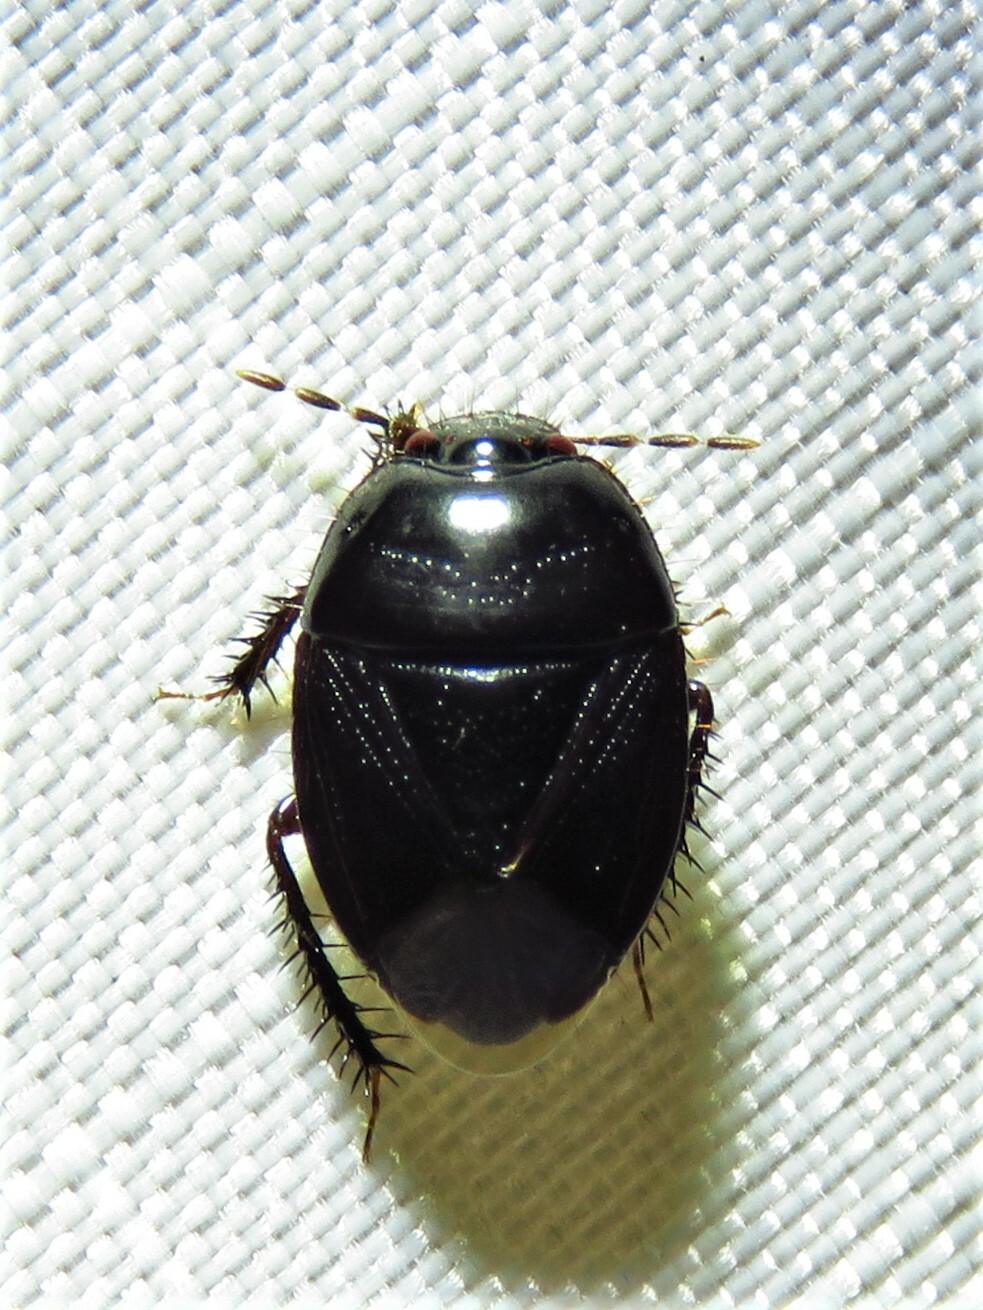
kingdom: Animalia
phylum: Arthropoda
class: Insecta
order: Hemiptera
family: Cydnidae
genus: Pangaeus
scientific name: Pangaeus bilineatus
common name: Burrower bug
